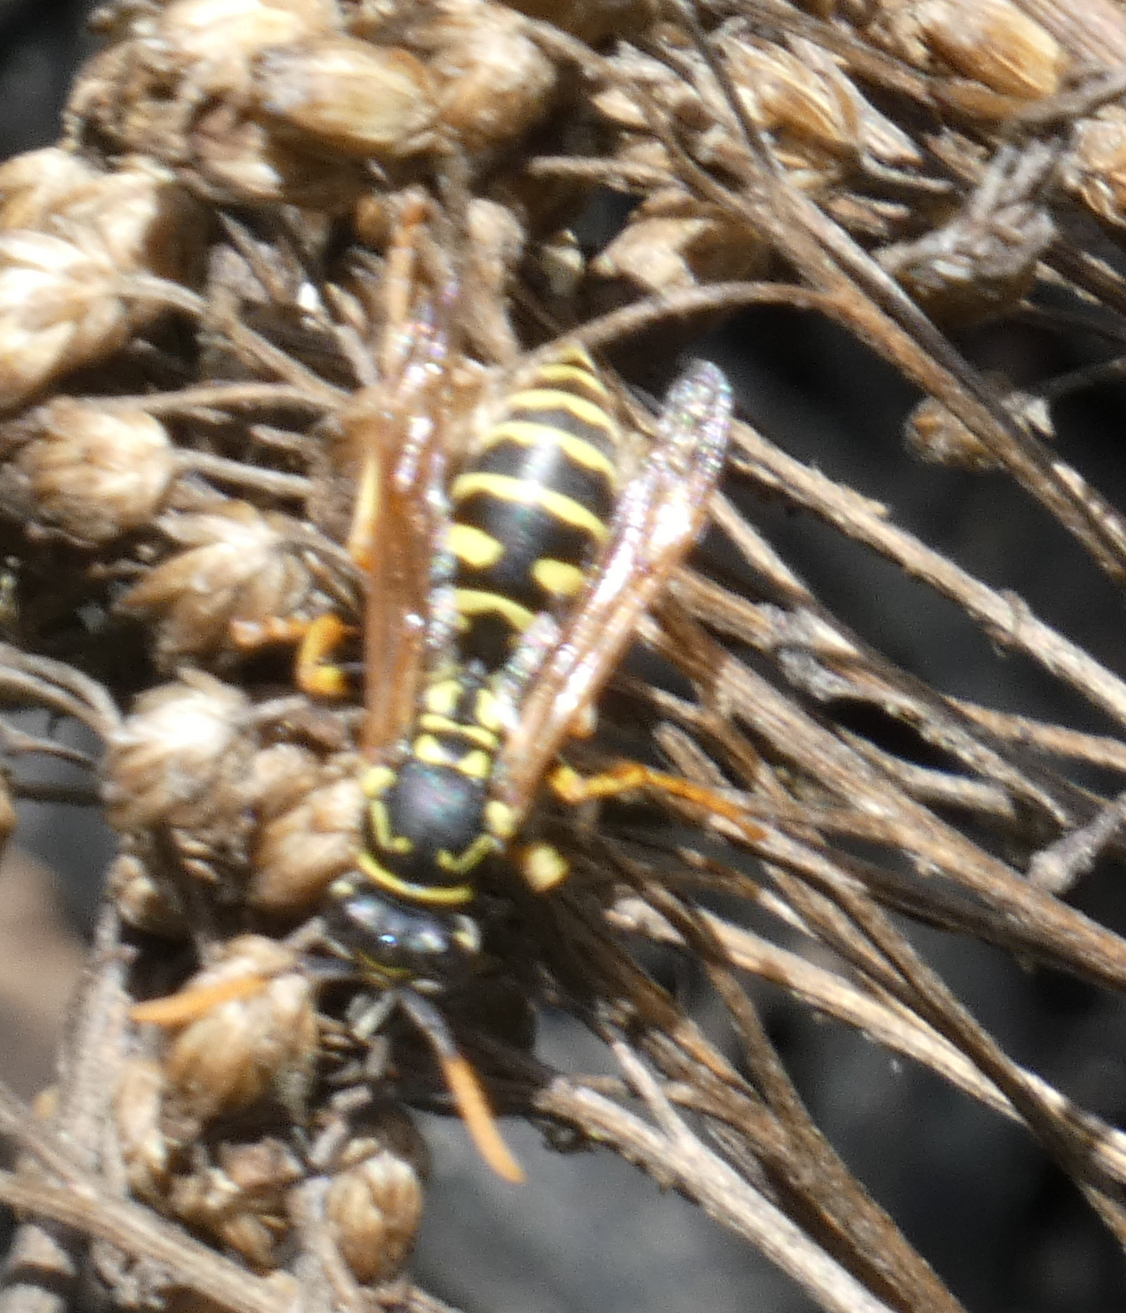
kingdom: Animalia
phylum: Arthropoda
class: Insecta
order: Hymenoptera
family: Eumenidae
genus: Polistes
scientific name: Polistes dominula
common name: Paper wasp
